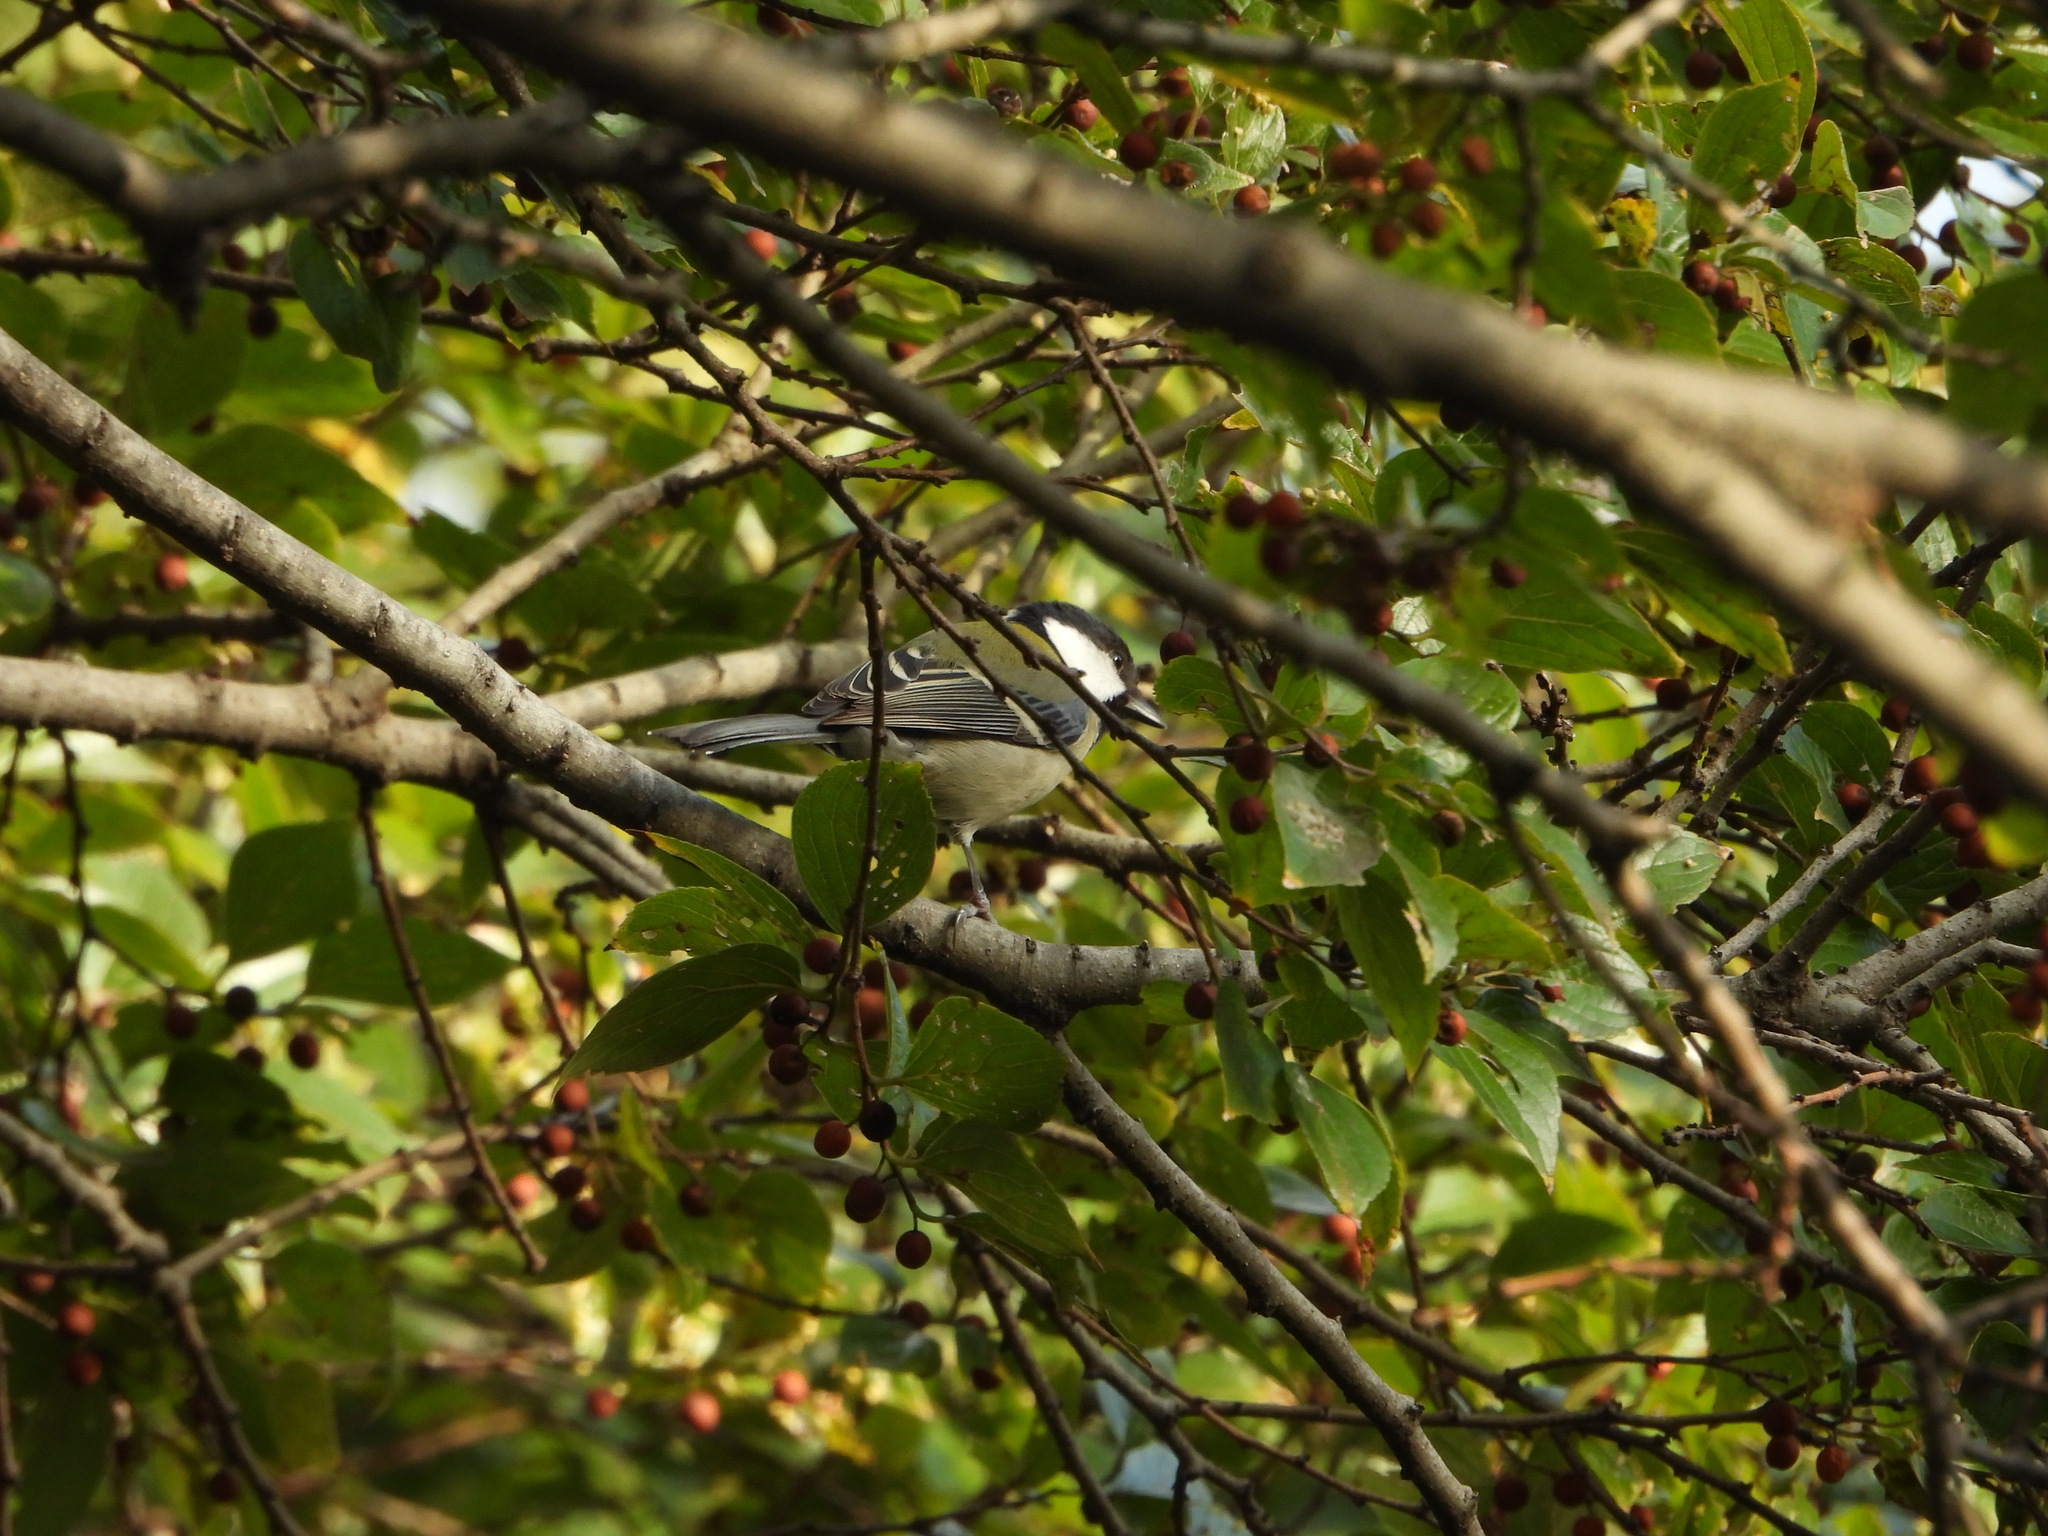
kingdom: Animalia
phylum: Chordata
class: Aves
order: Passeriformes
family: Paridae
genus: Parus
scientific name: Parus minor
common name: Japanese tit
